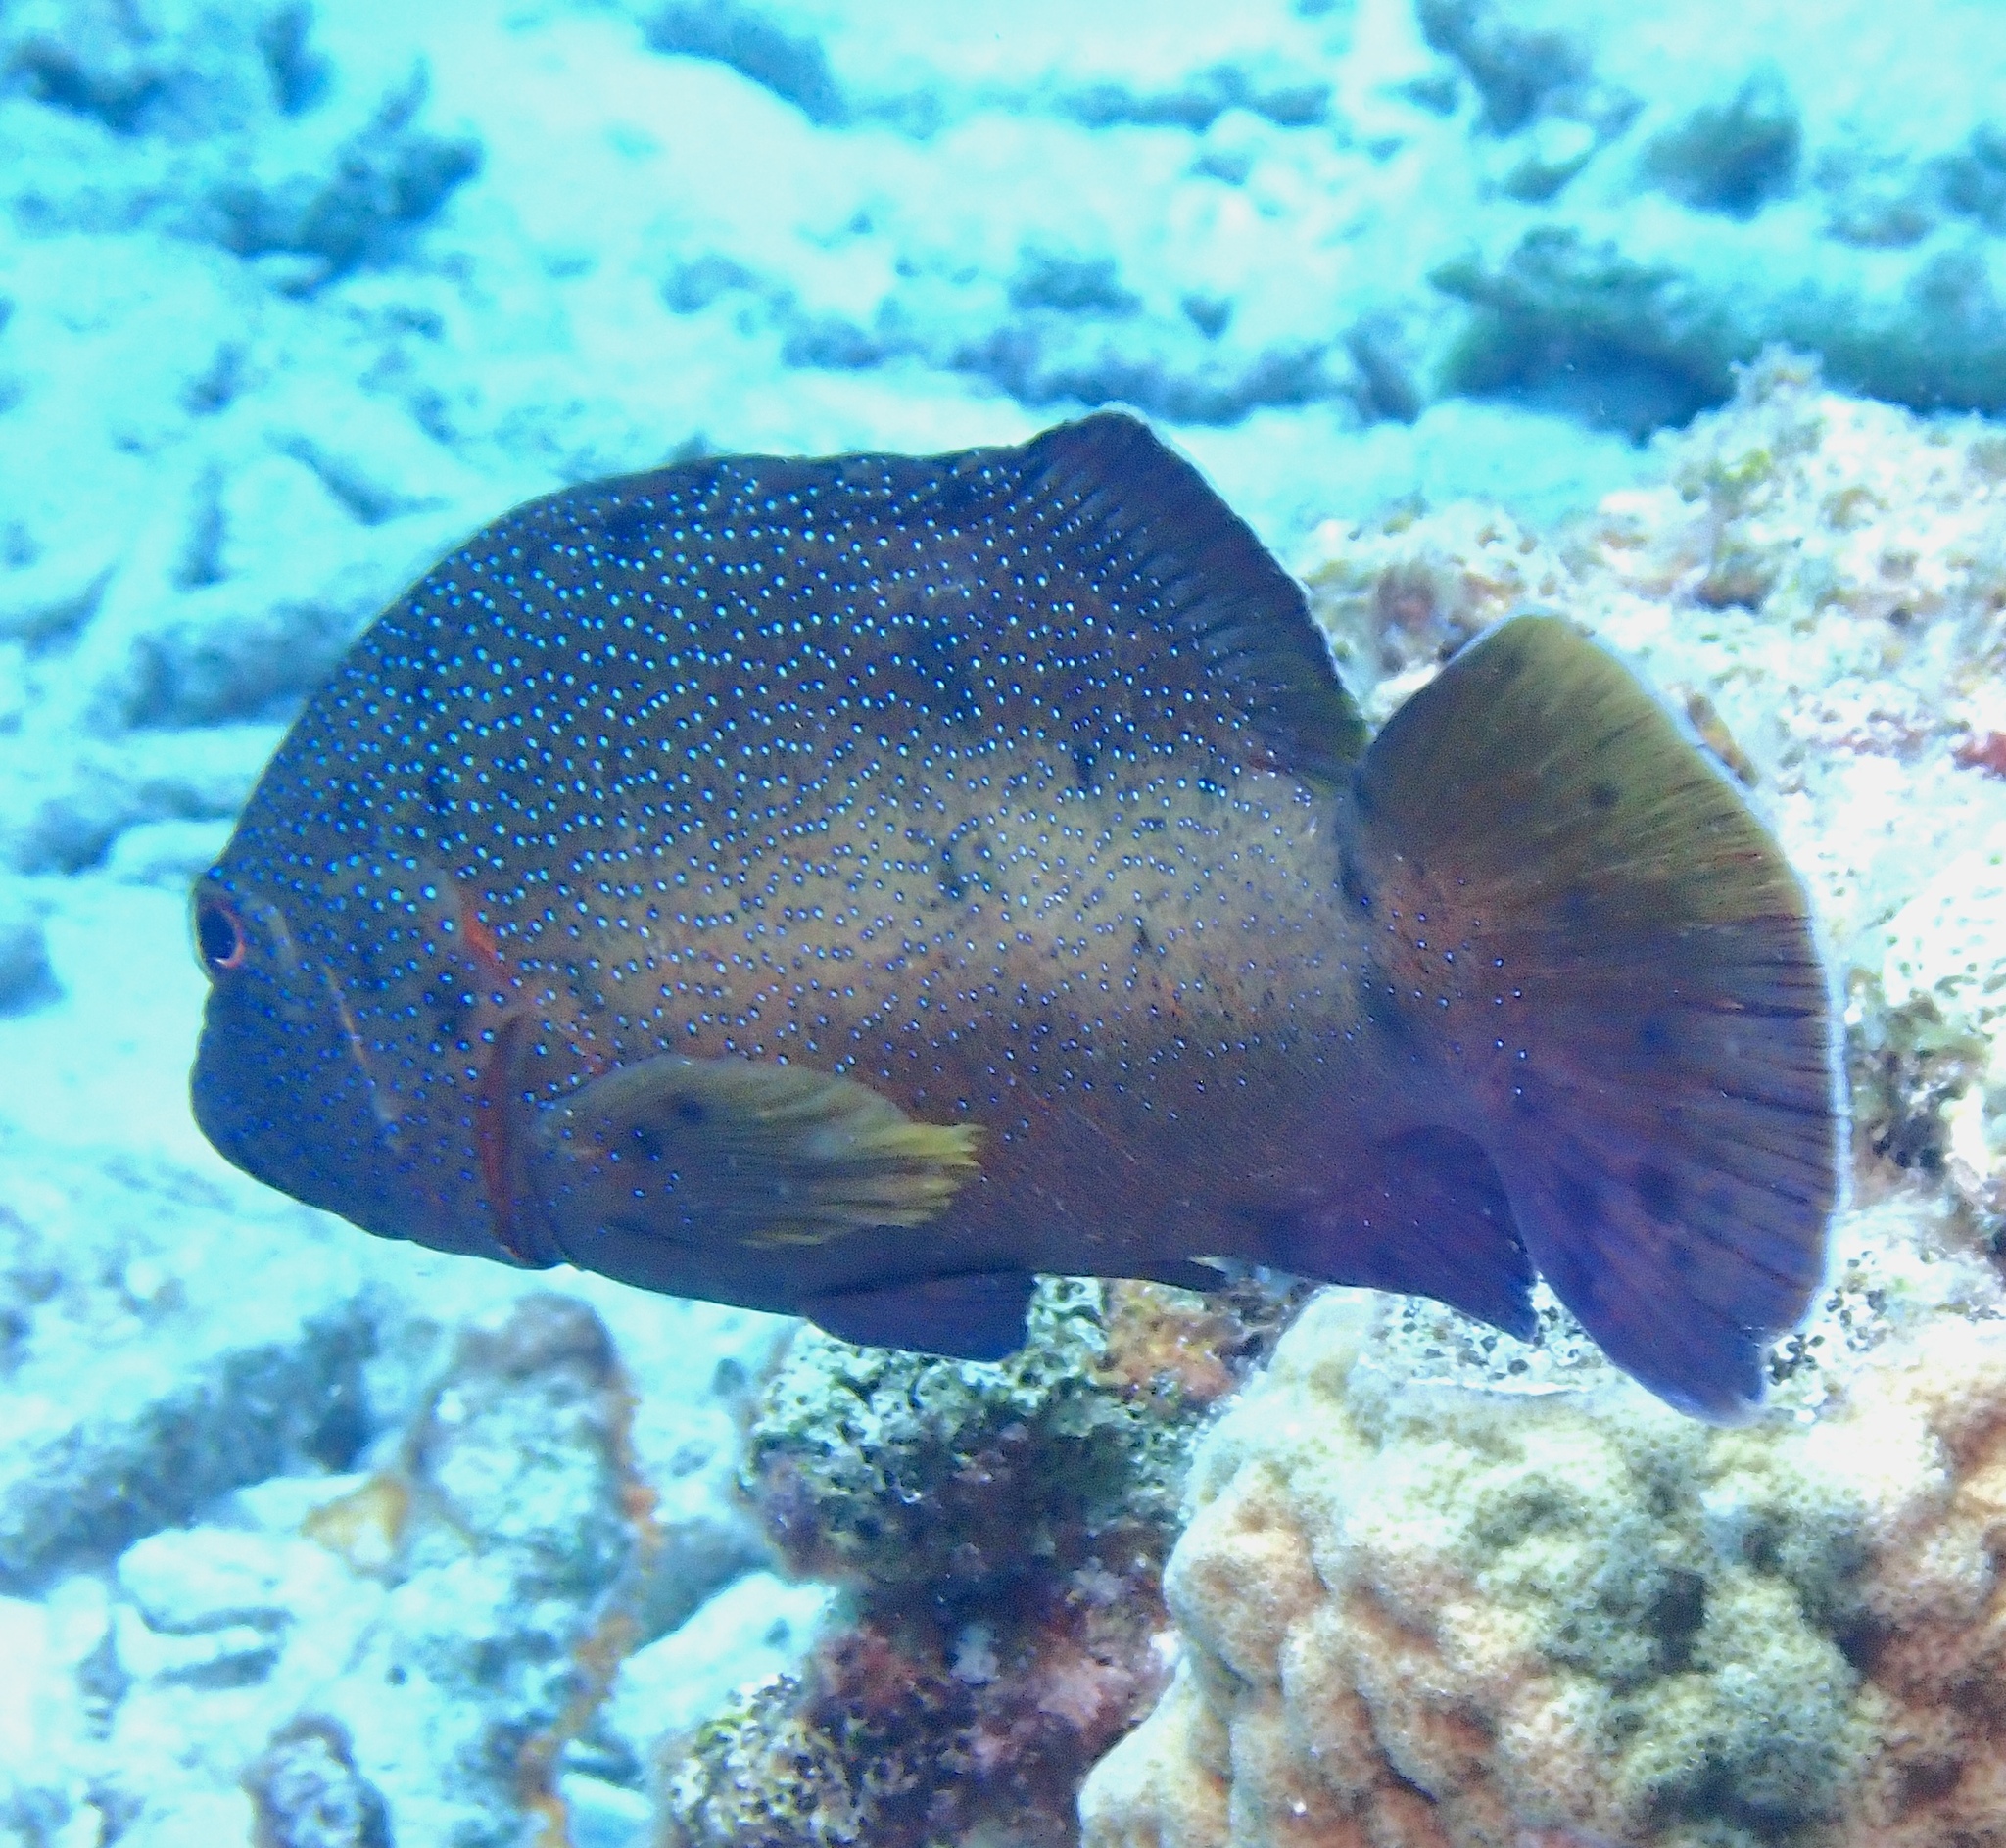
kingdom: Animalia
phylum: Chordata
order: Perciformes
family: Serranidae
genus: Cephalopholis
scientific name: Cephalopholis fulva
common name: Butterfish
